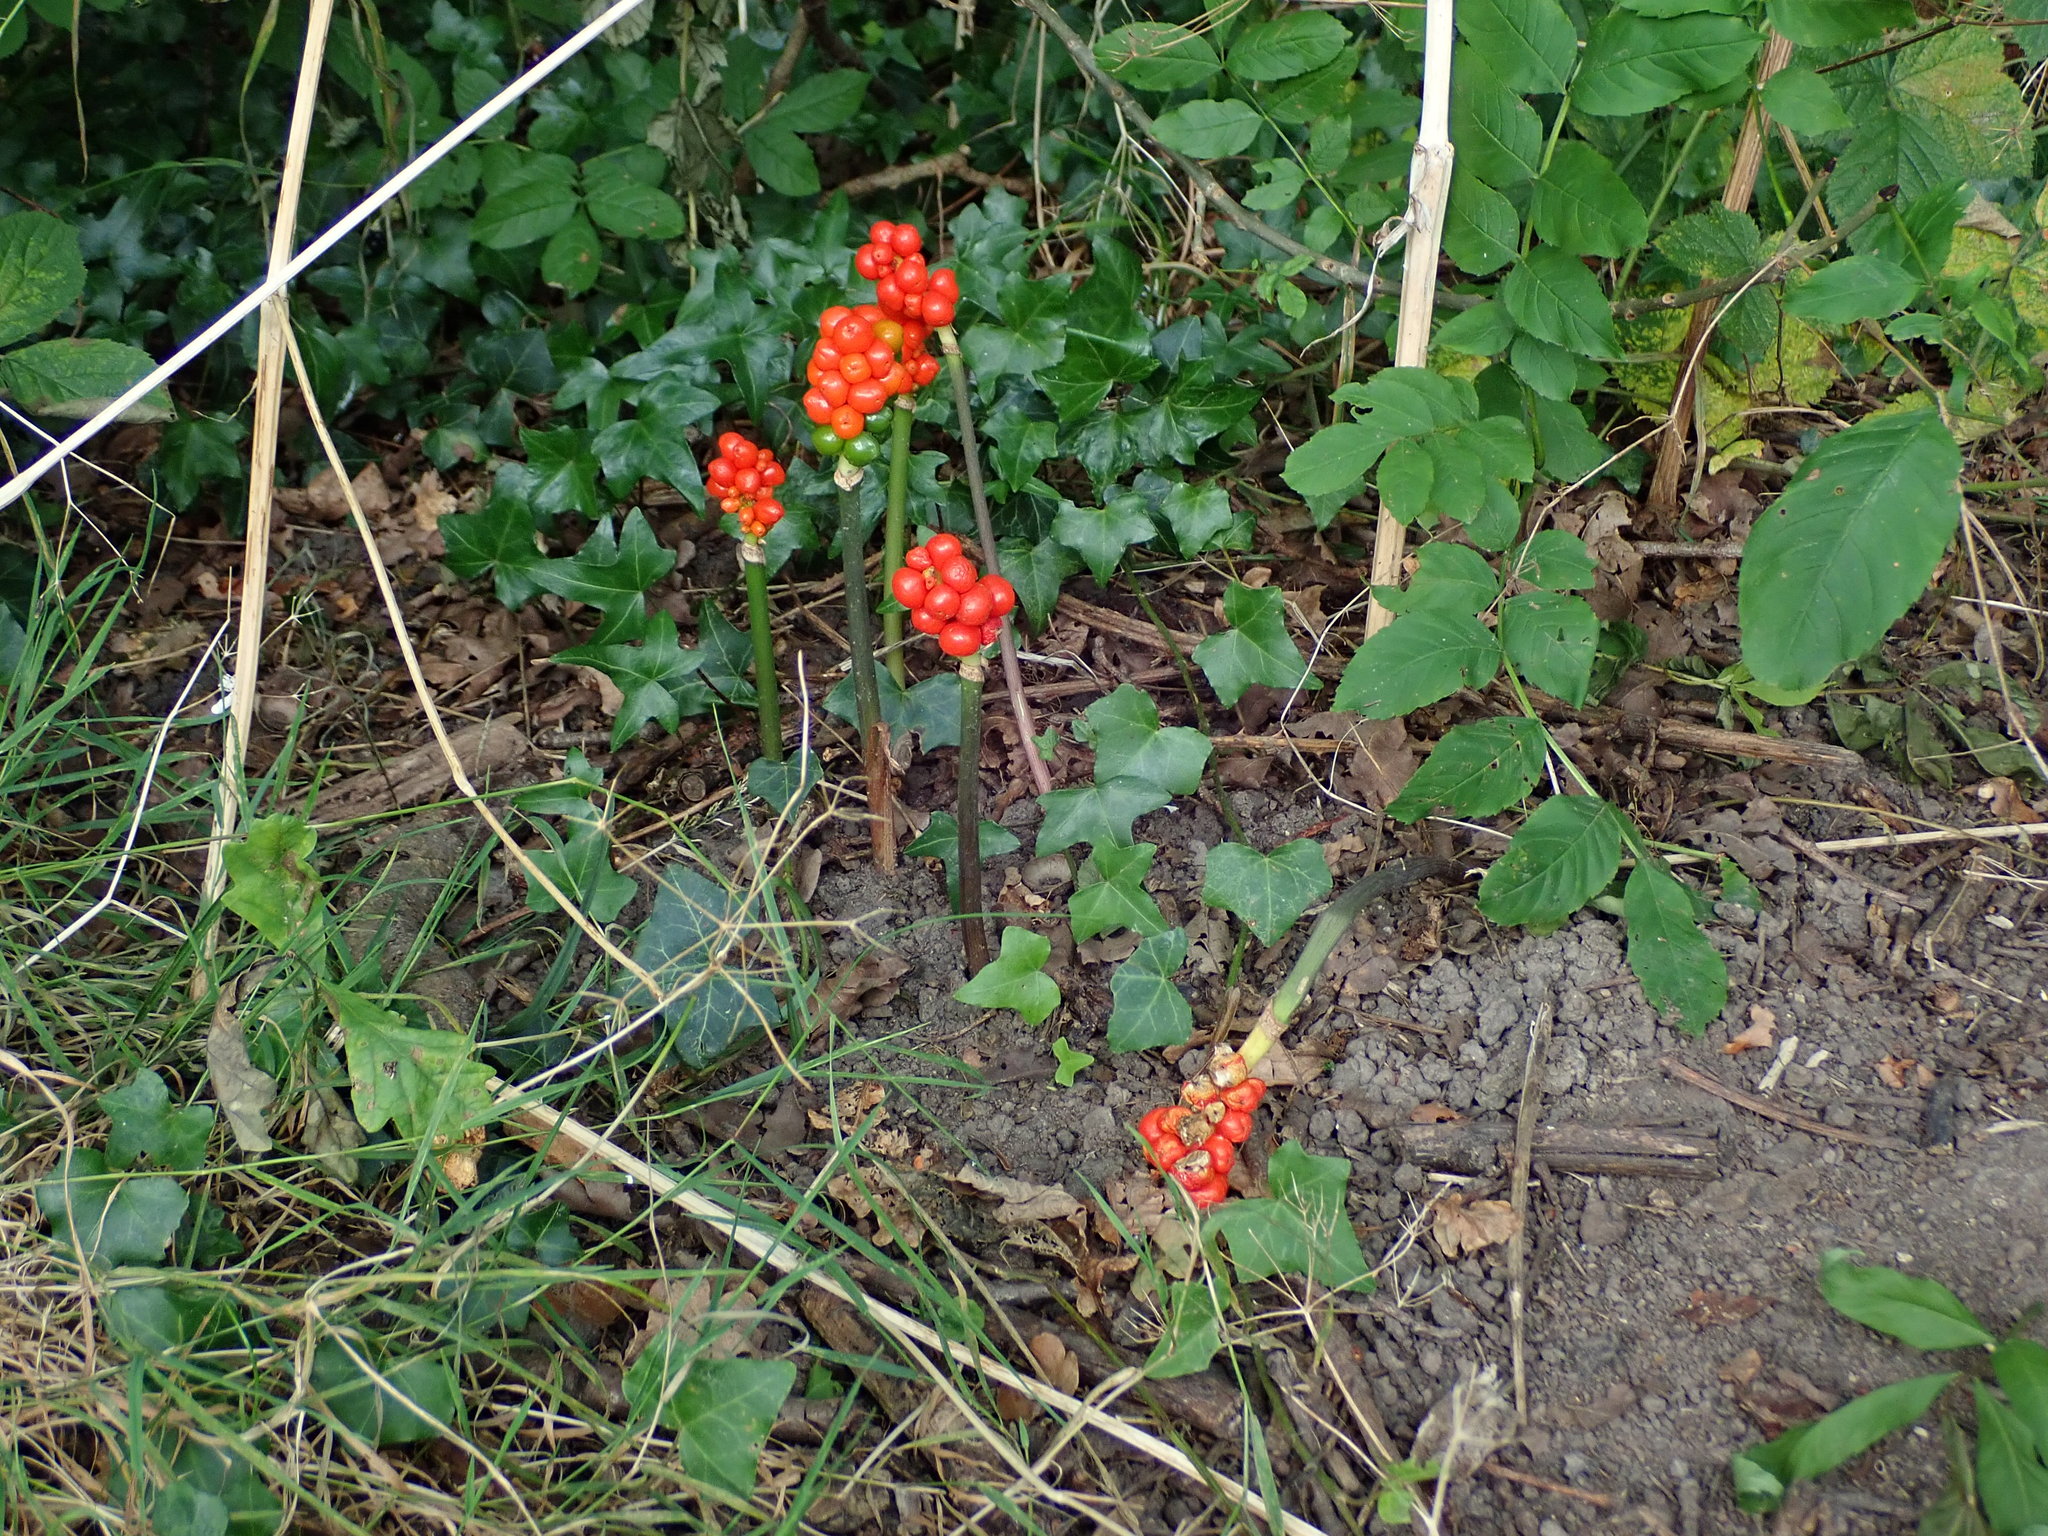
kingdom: Plantae
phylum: Tracheophyta
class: Liliopsida
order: Alismatales
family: Araceae
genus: Arum
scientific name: Arum maculatum
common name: Lords-and-ladies
